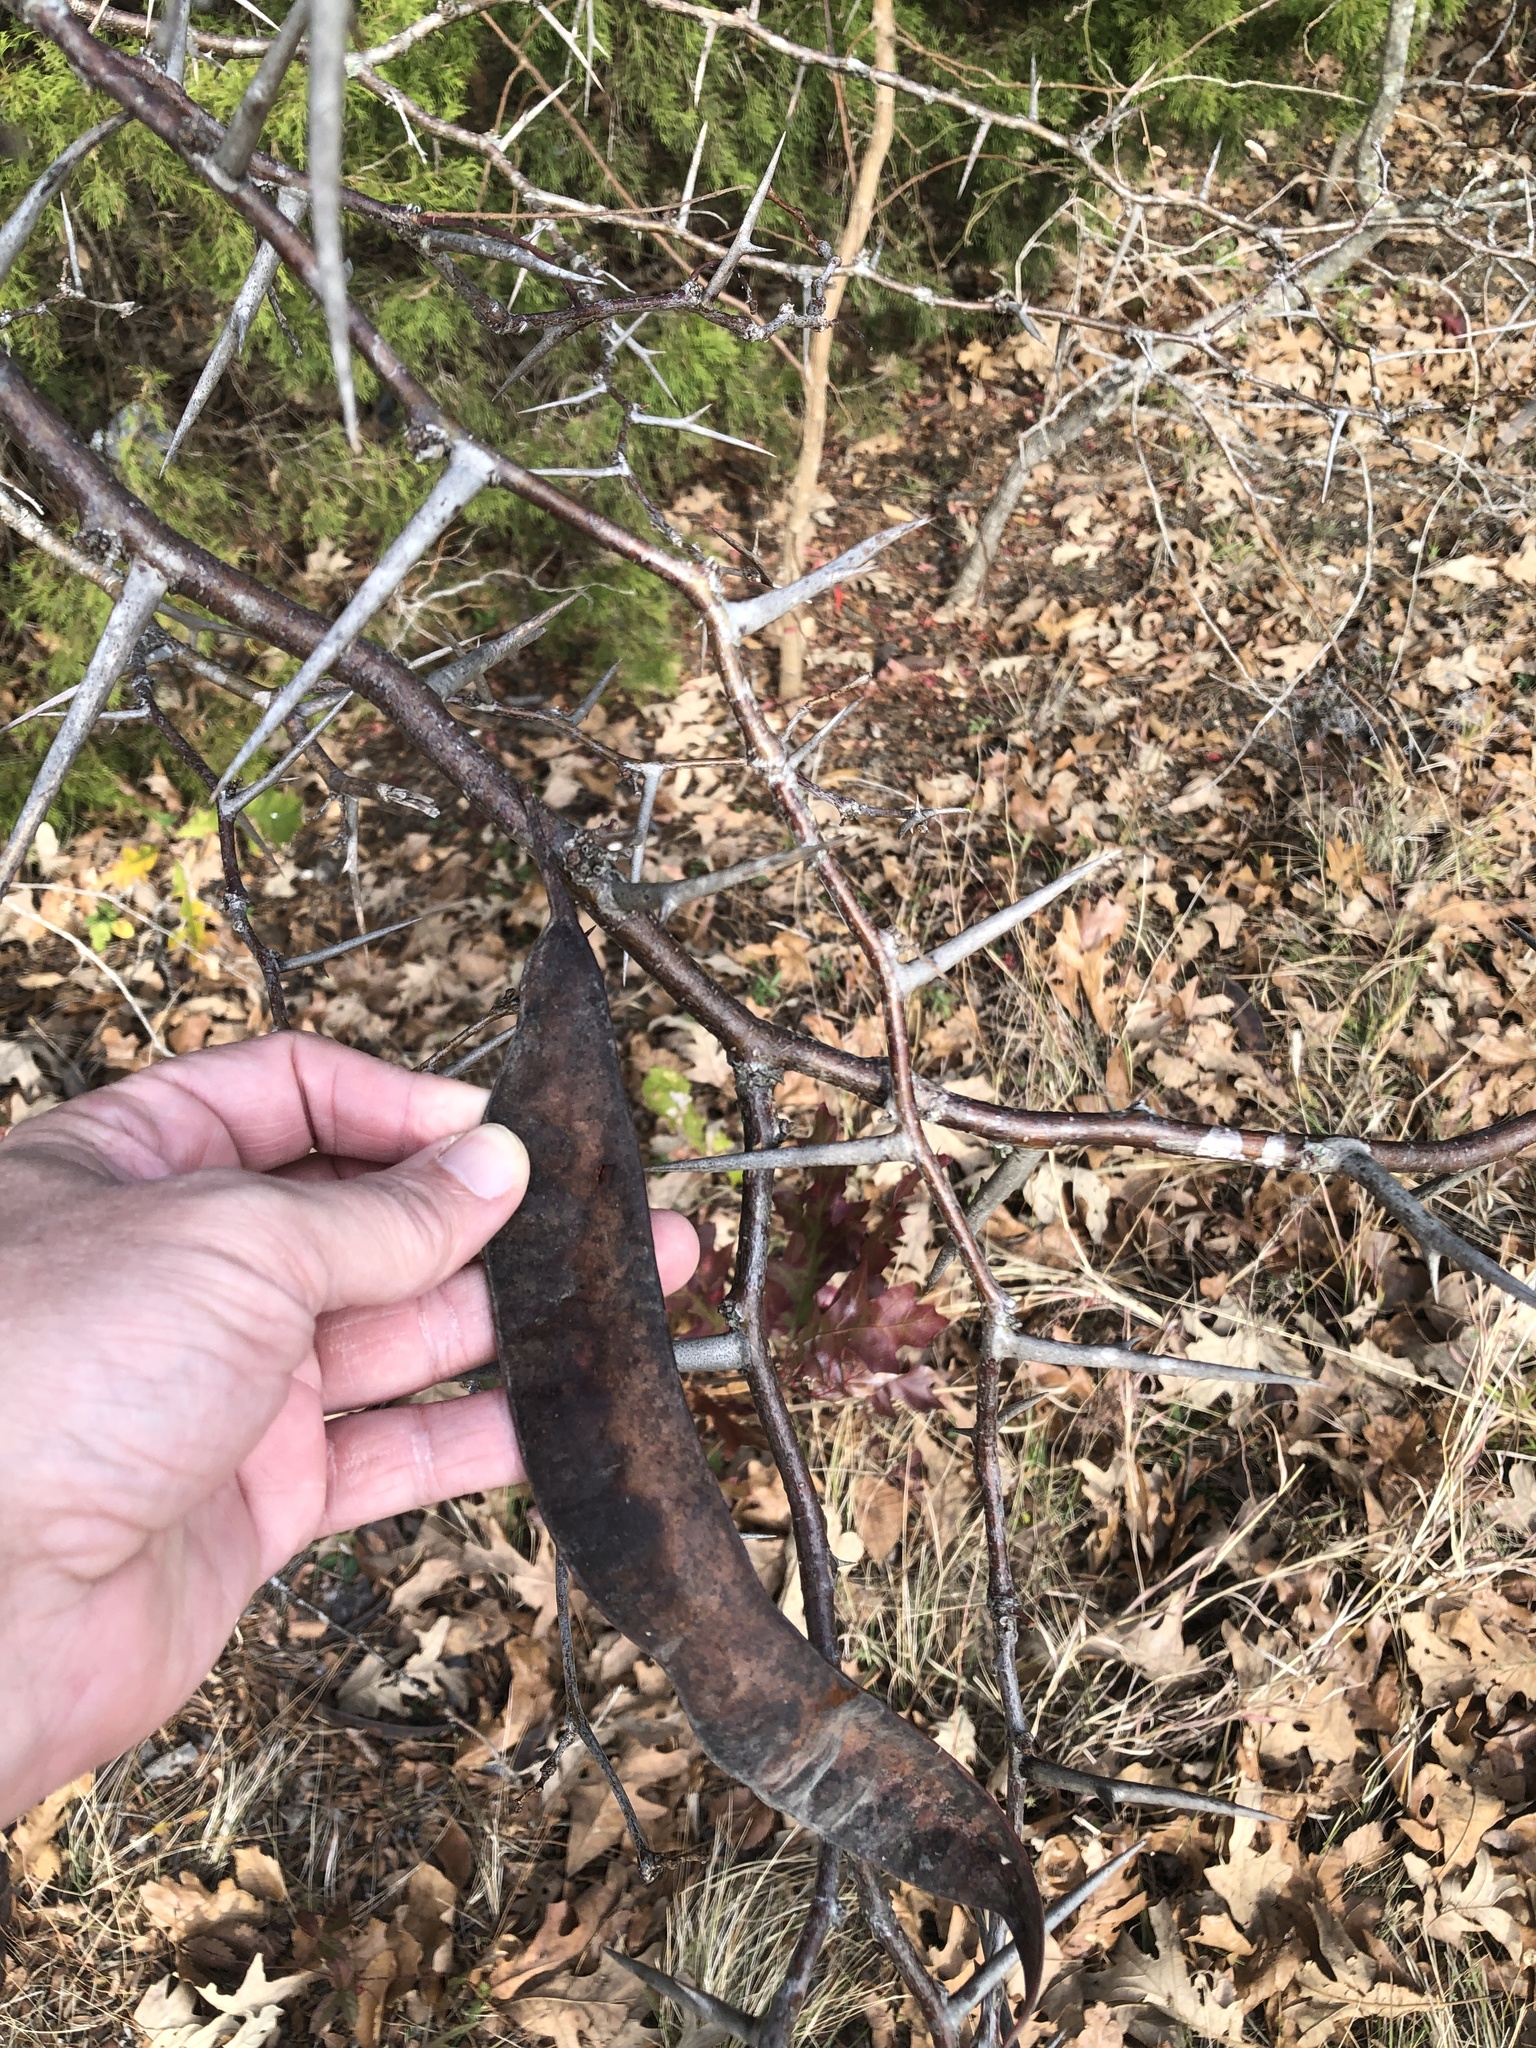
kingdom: Plantae
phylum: Tracheophyta
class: Magnoliopsida
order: Fabales
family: Fabaceae
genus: Gleditsia
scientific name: Gleditsia triacanthos
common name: Common honeylocust
